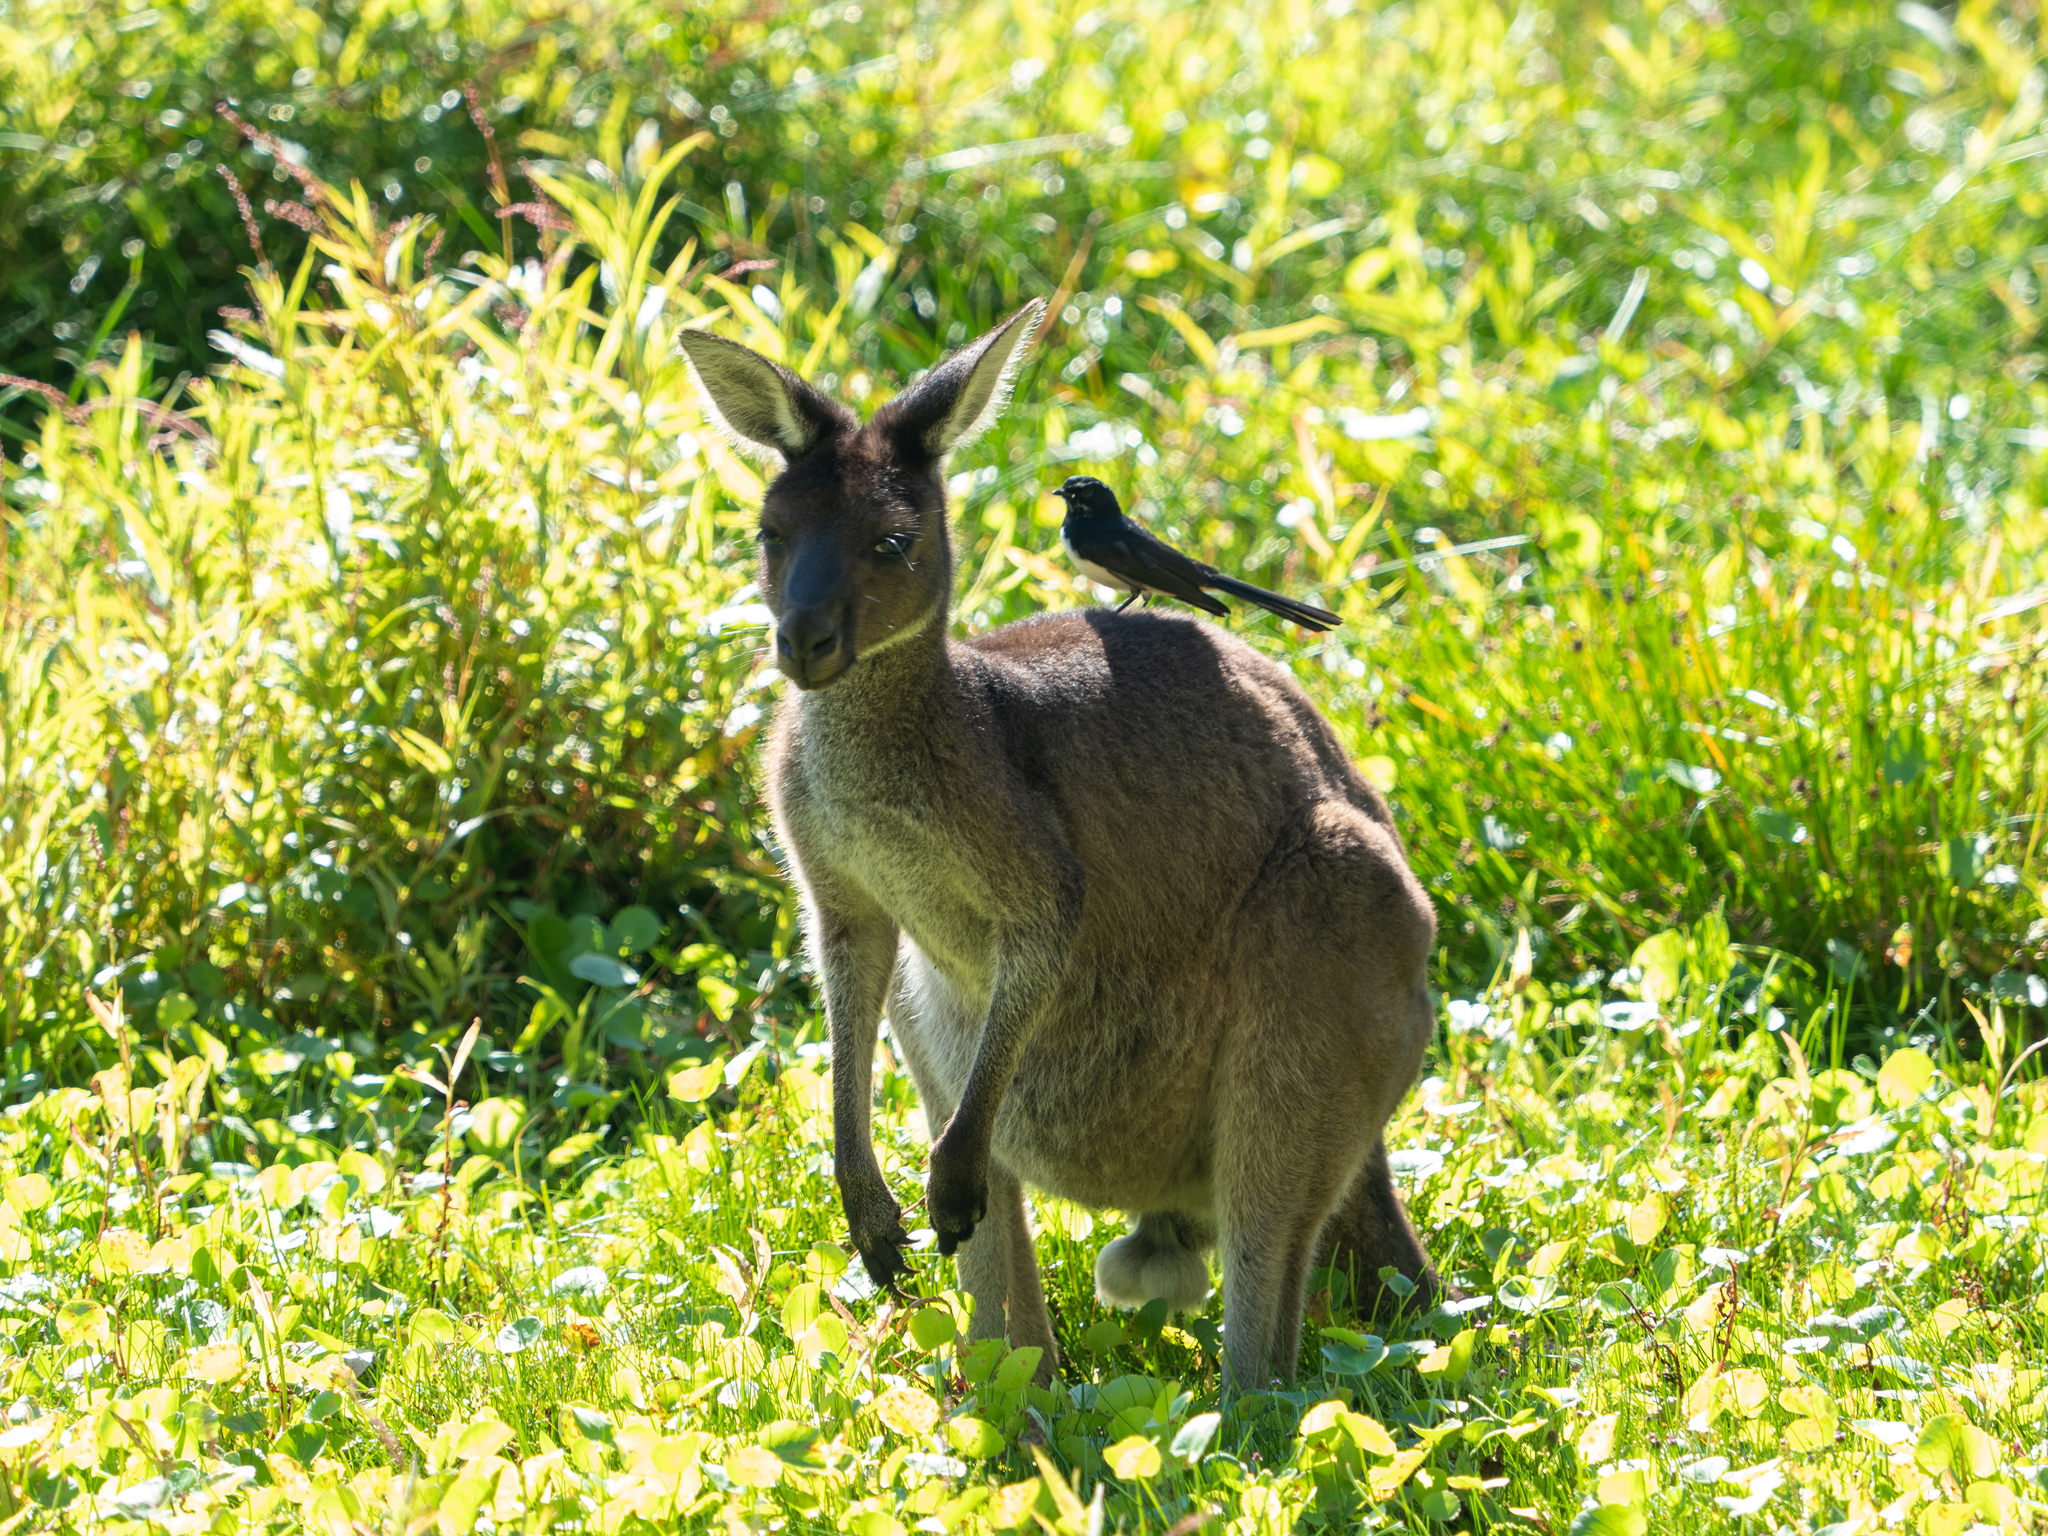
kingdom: Animalia
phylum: Chordata
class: Mammalia
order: Diprotodontia
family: Macropodidae
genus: Macropus
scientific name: Macropus fuliginosus
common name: Western grey kangaroo
